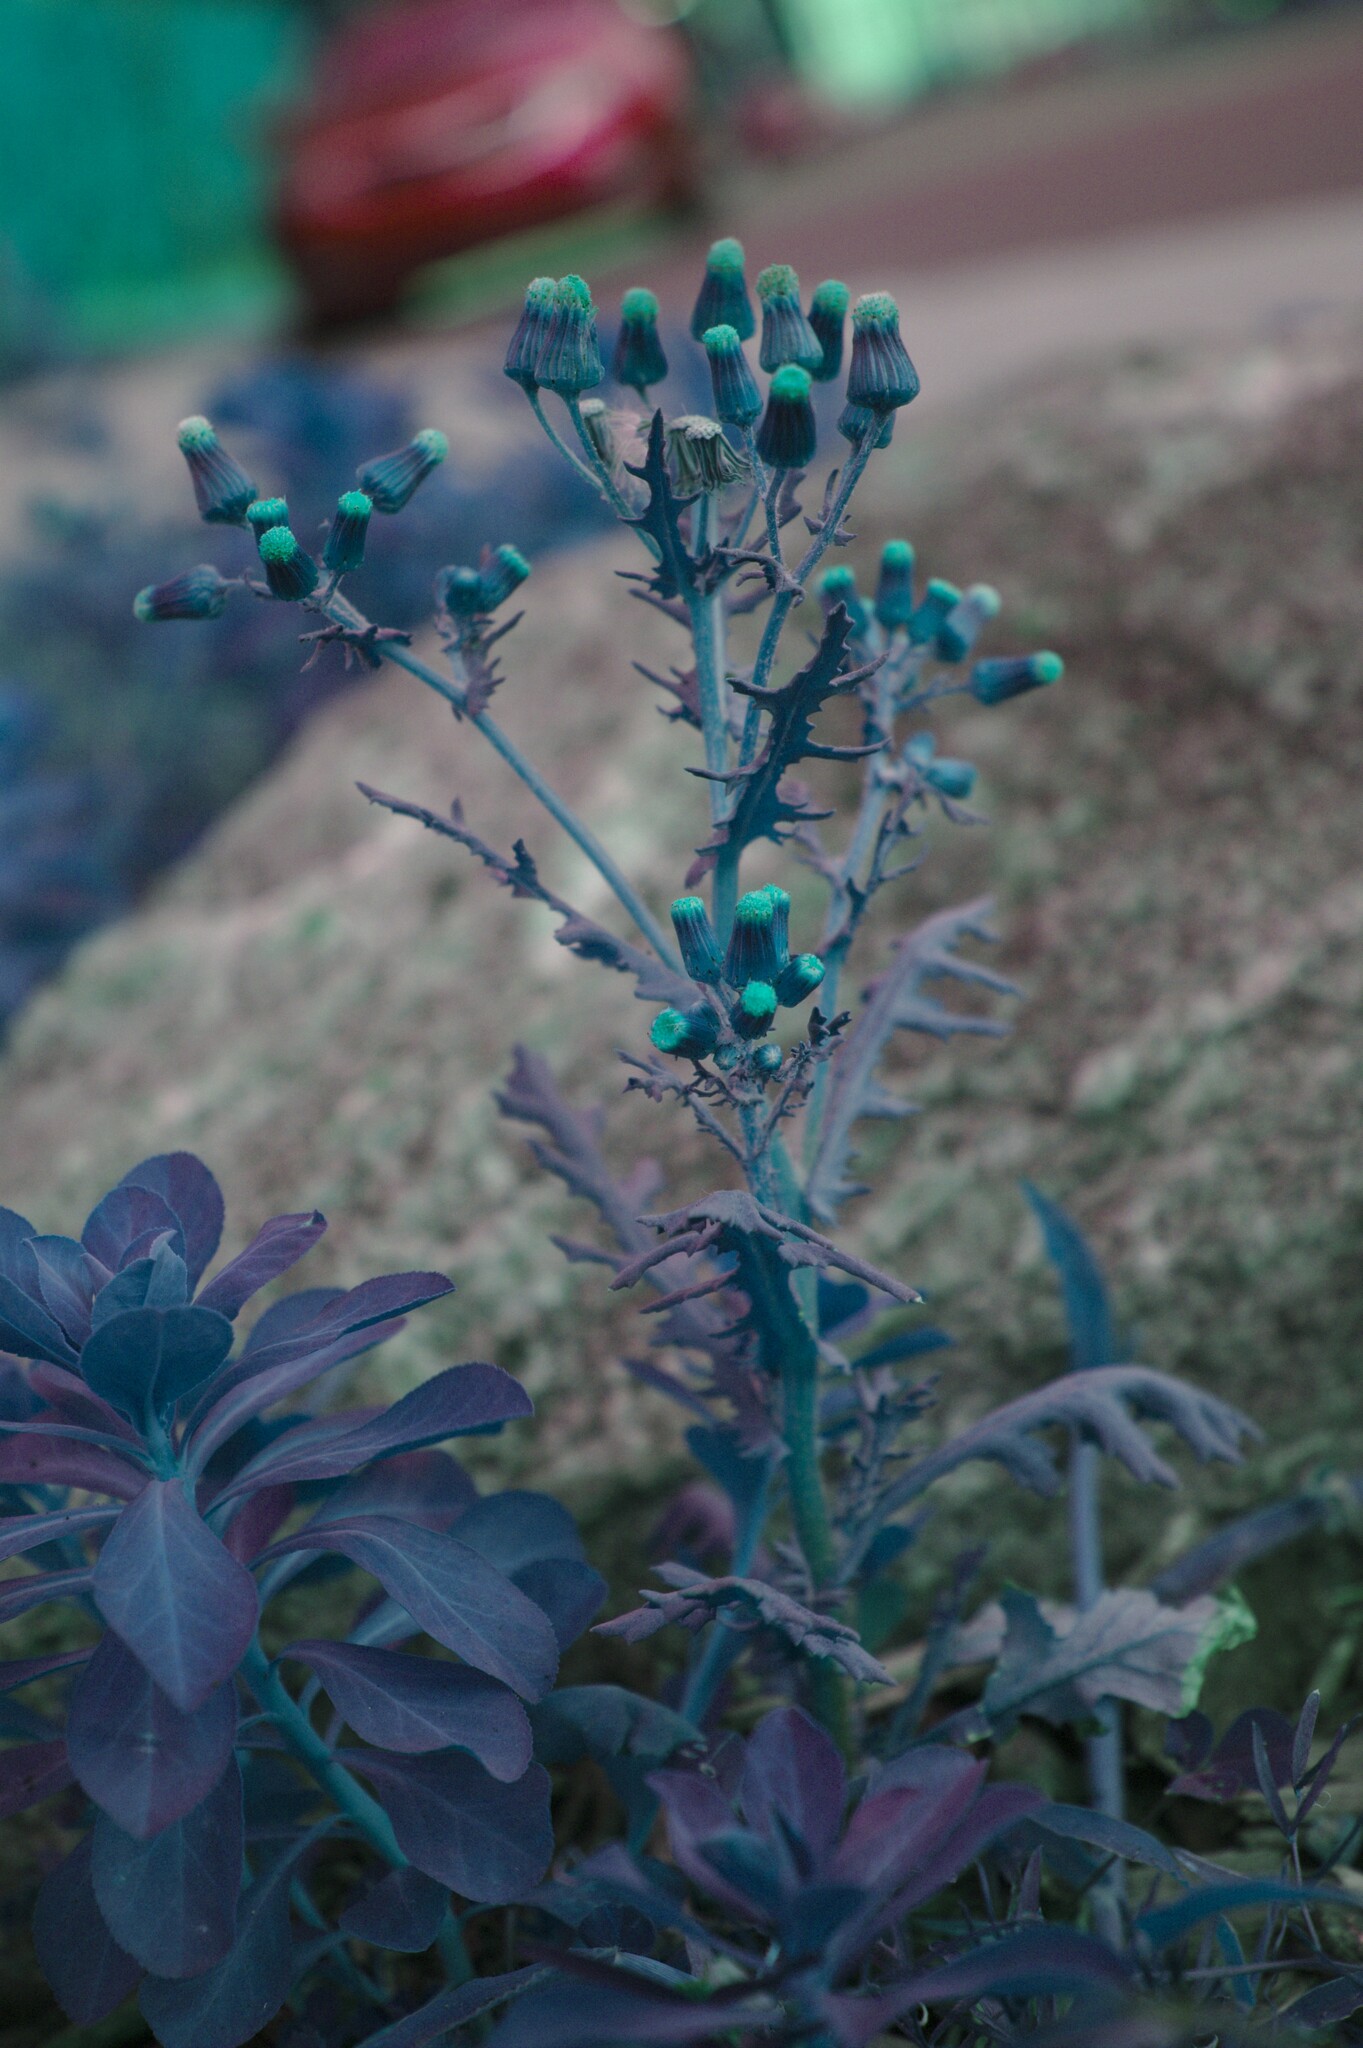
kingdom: Plantae
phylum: Tracheophyta
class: Magnoliopsida
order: Asterales
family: Asteraceae
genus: Senecio
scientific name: Senecio vulgaris
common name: Old-man-in-the-spring
